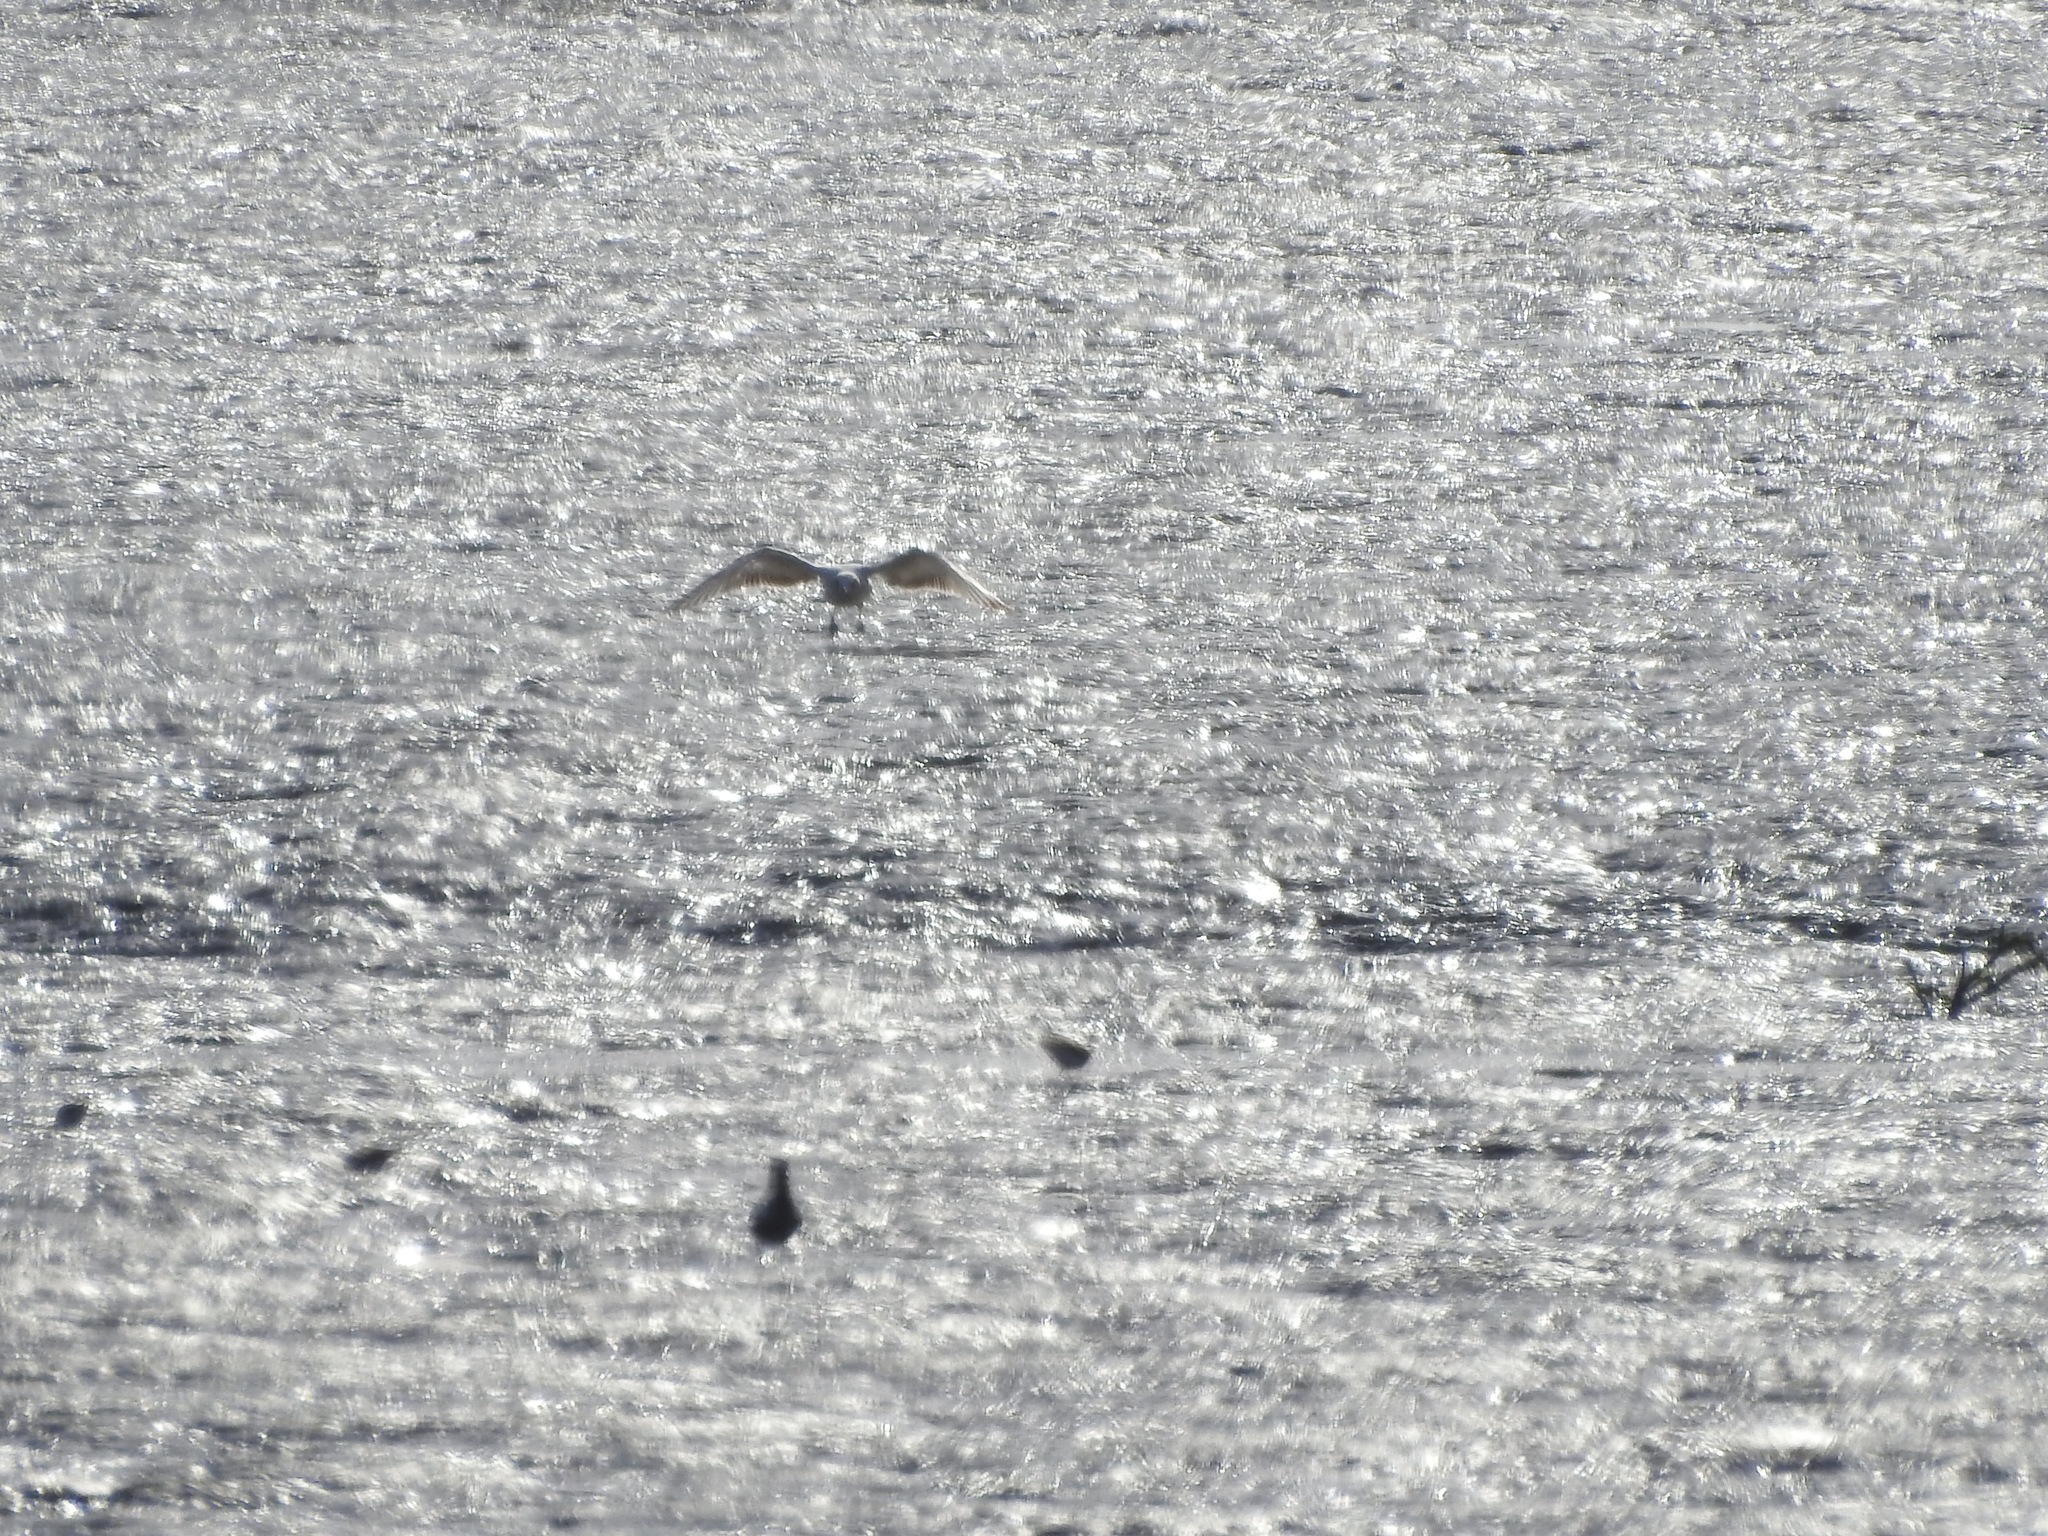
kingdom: Animalia
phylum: Chordata
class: Aves
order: Charadriiformes
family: Laridae
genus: Larus
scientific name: Larus
